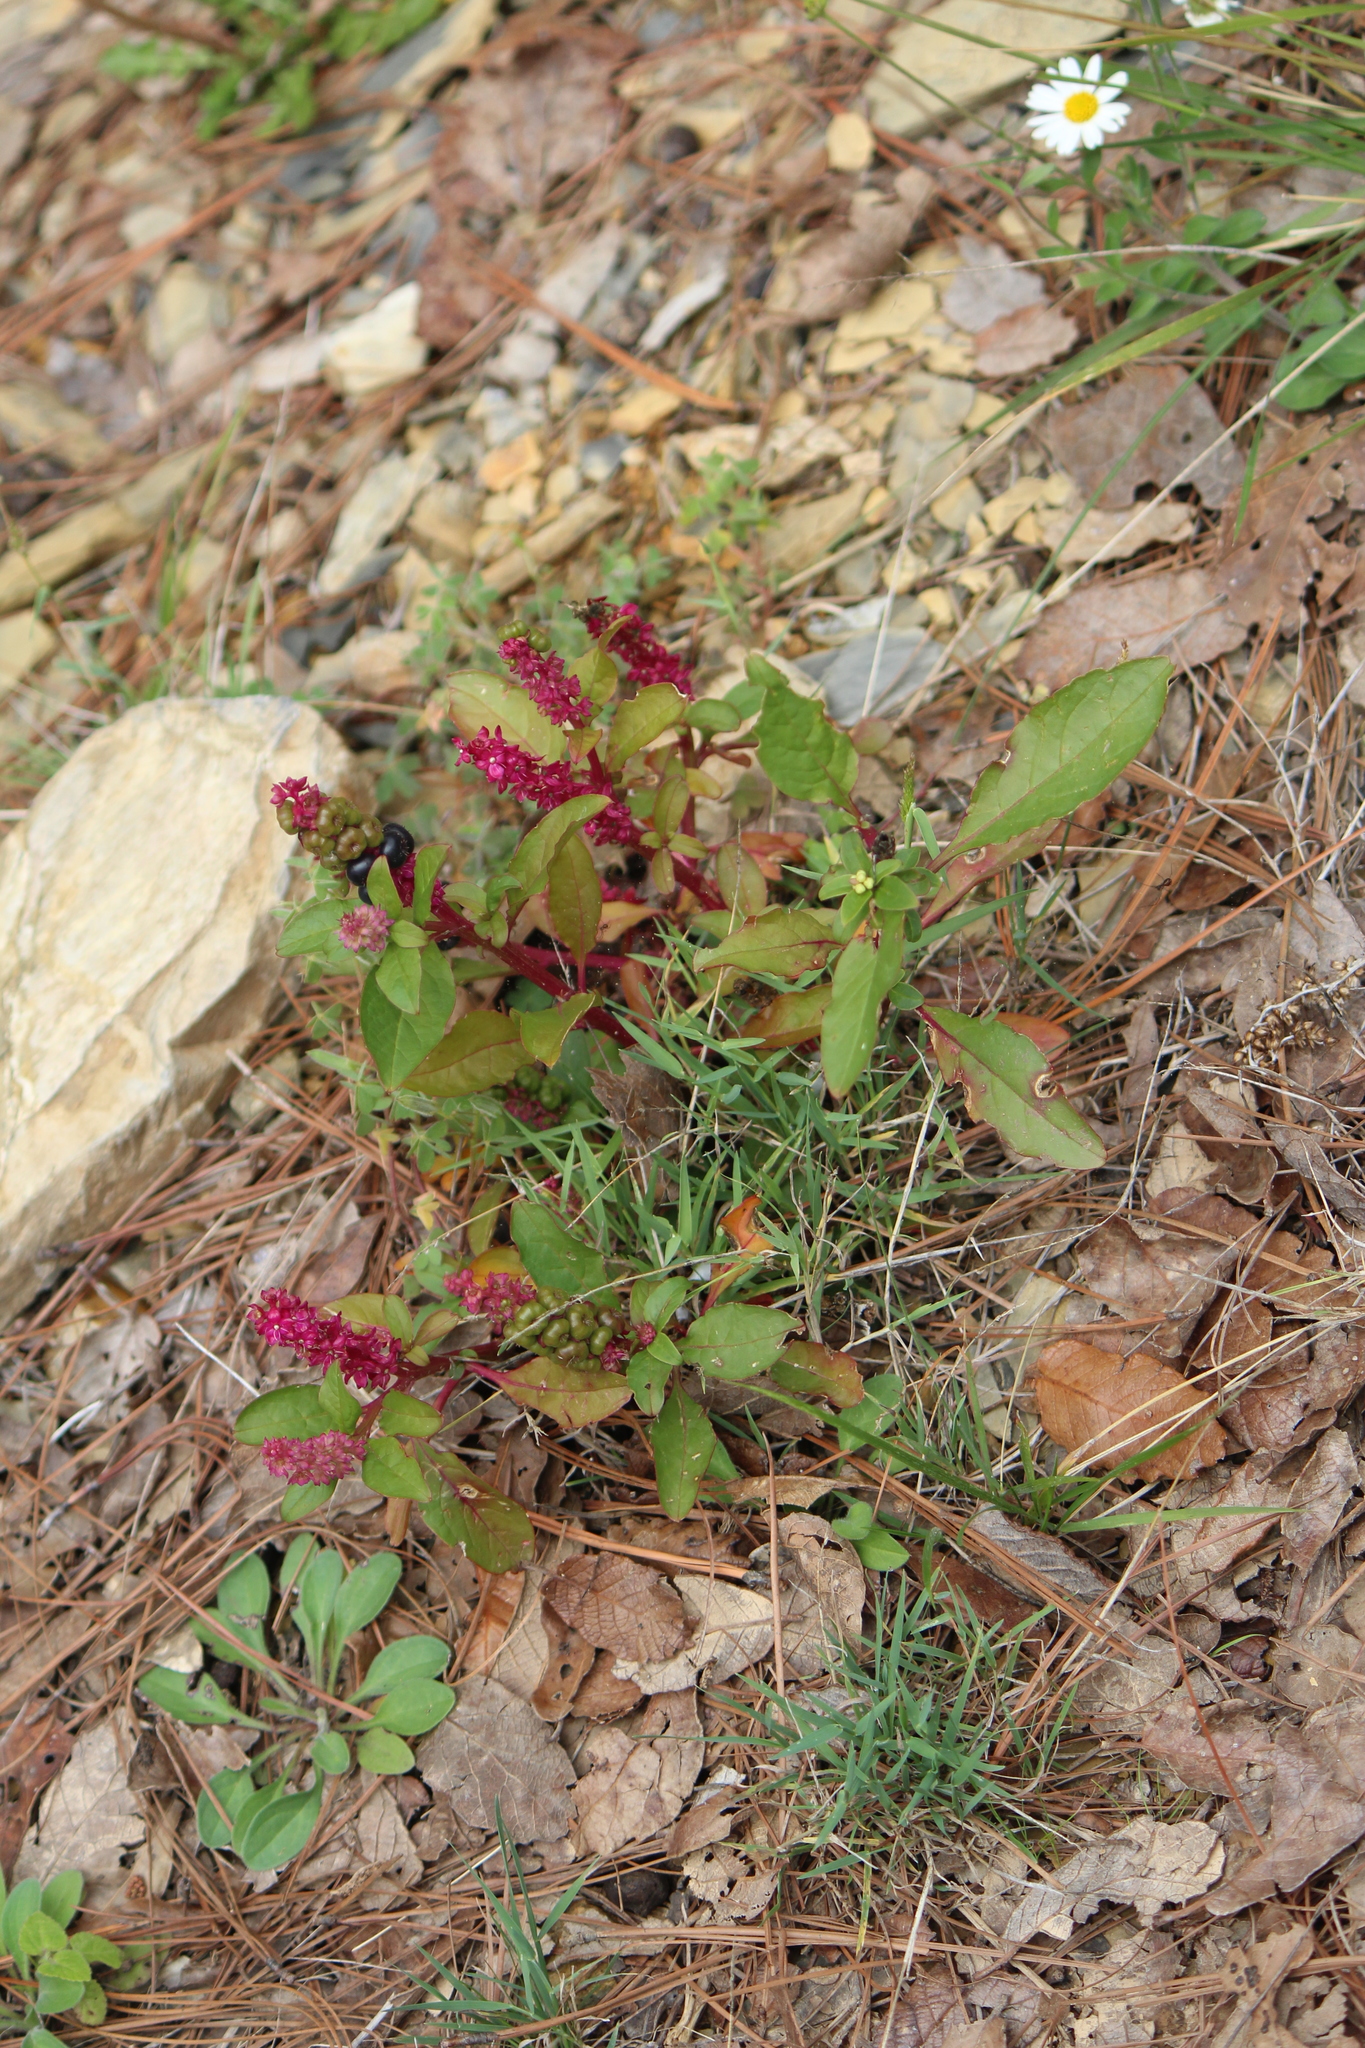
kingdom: Plantae
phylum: Tracheophyta
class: Magnoliopsida
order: Caryophyllales
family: Phytolaccaceae
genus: Phytolacca
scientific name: Phytolacca icosandra
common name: Button pokeweed
